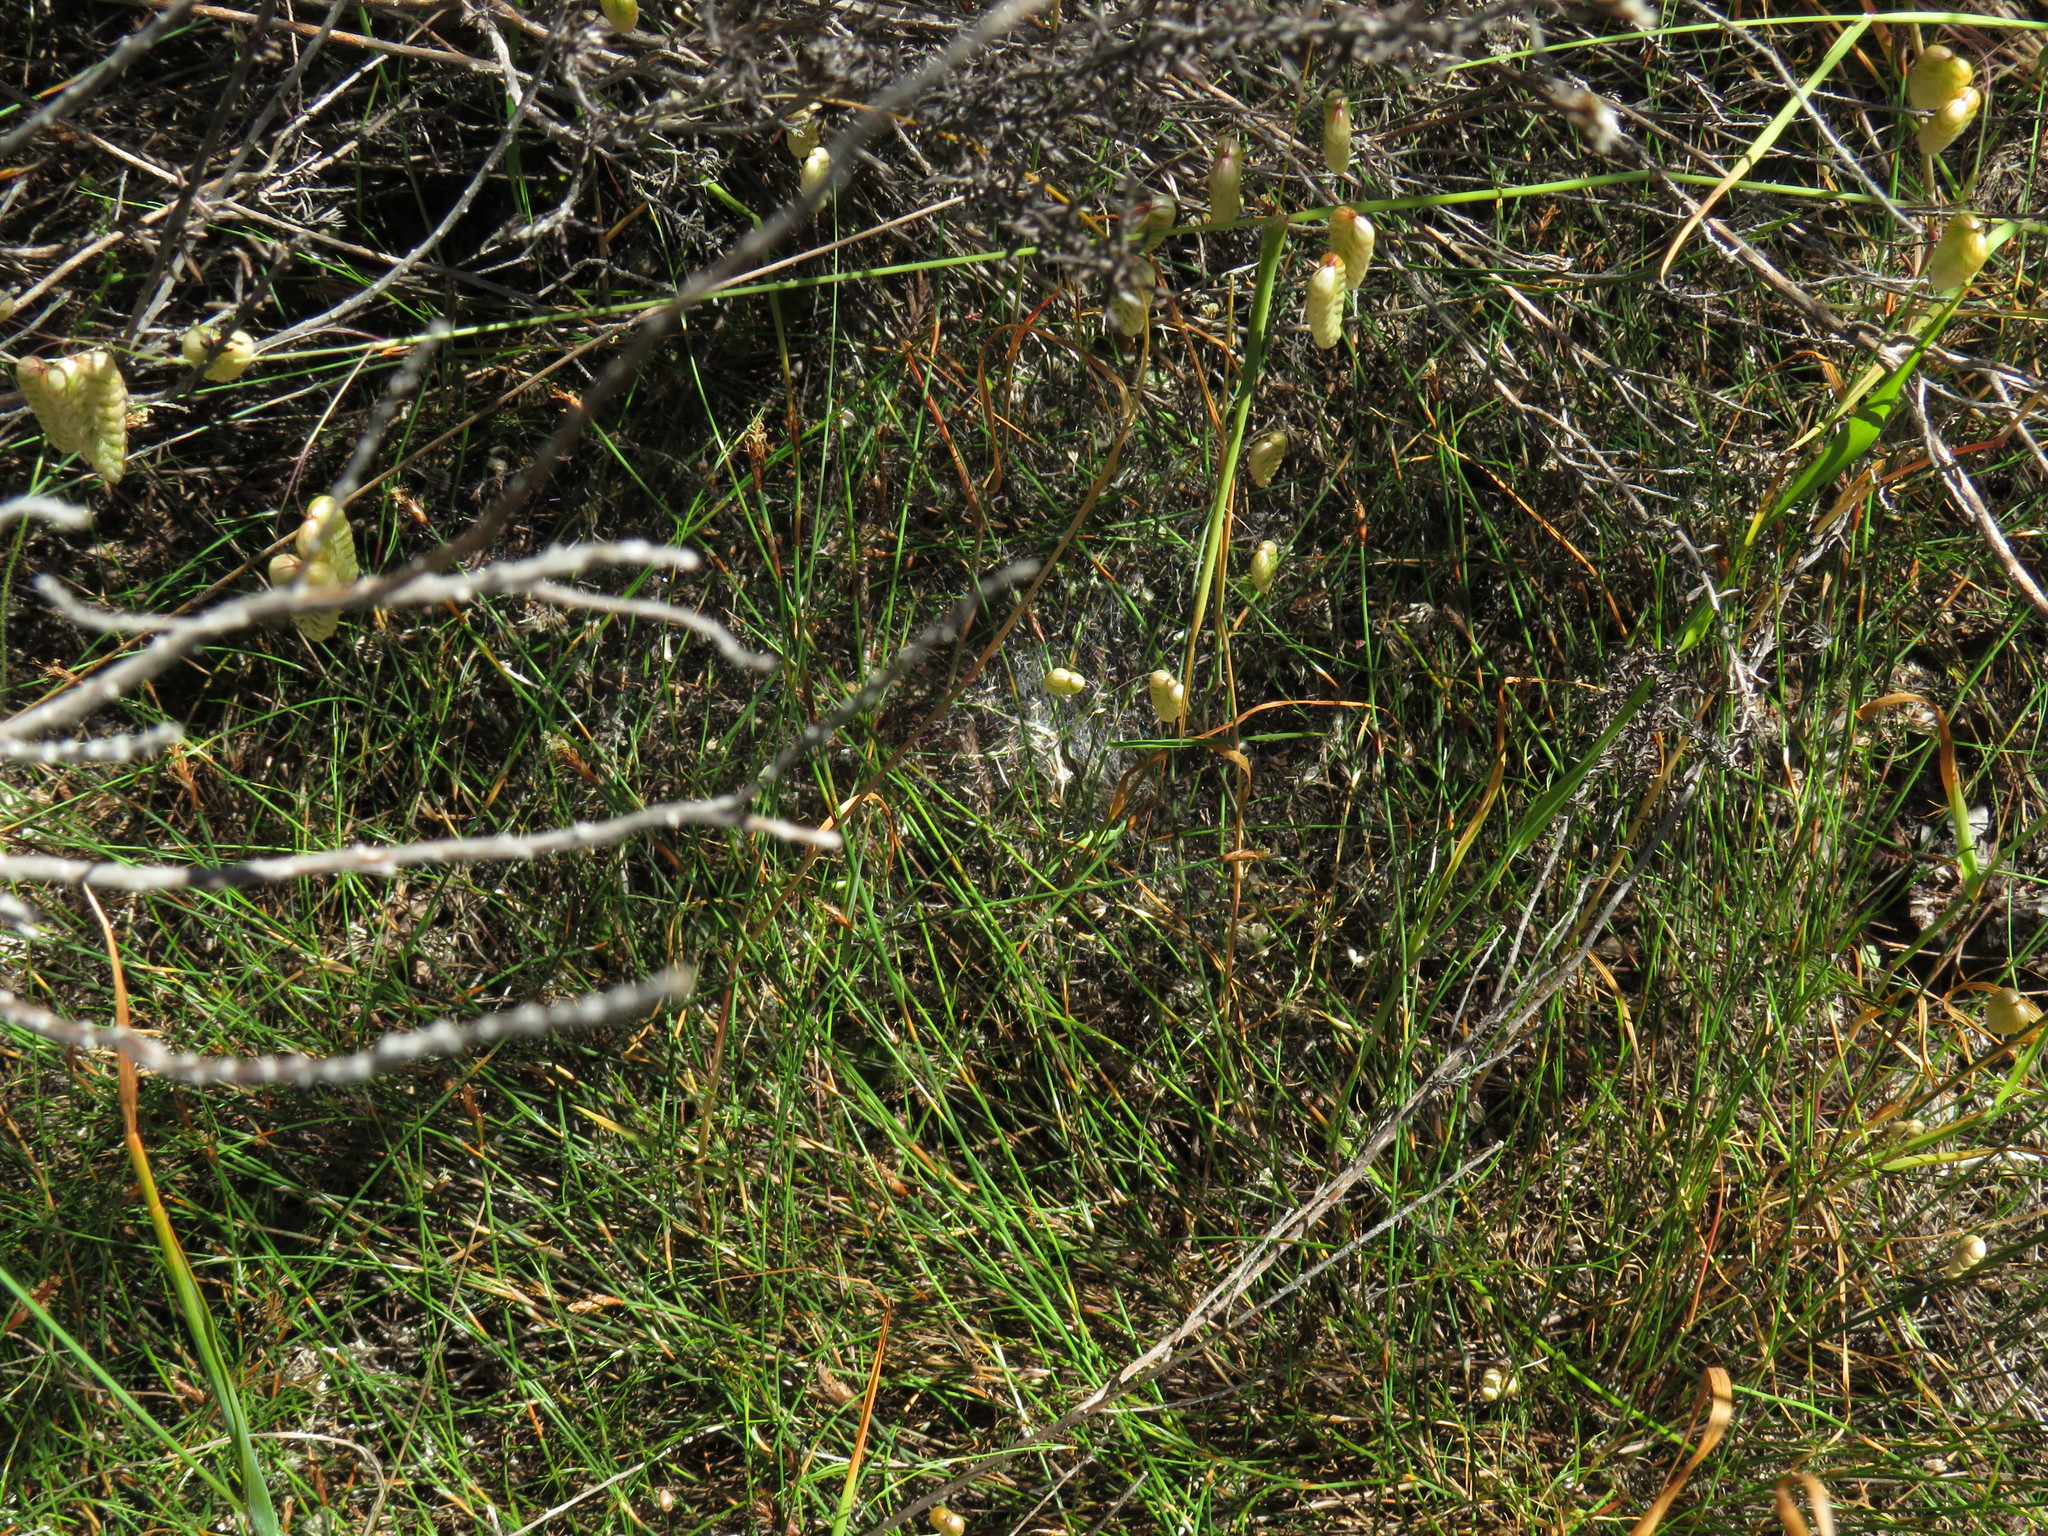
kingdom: Plantae
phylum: Tracheophyta
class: Liliopsida
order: Poales
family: Restionaceae
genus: Restio
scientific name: Restio capensis
